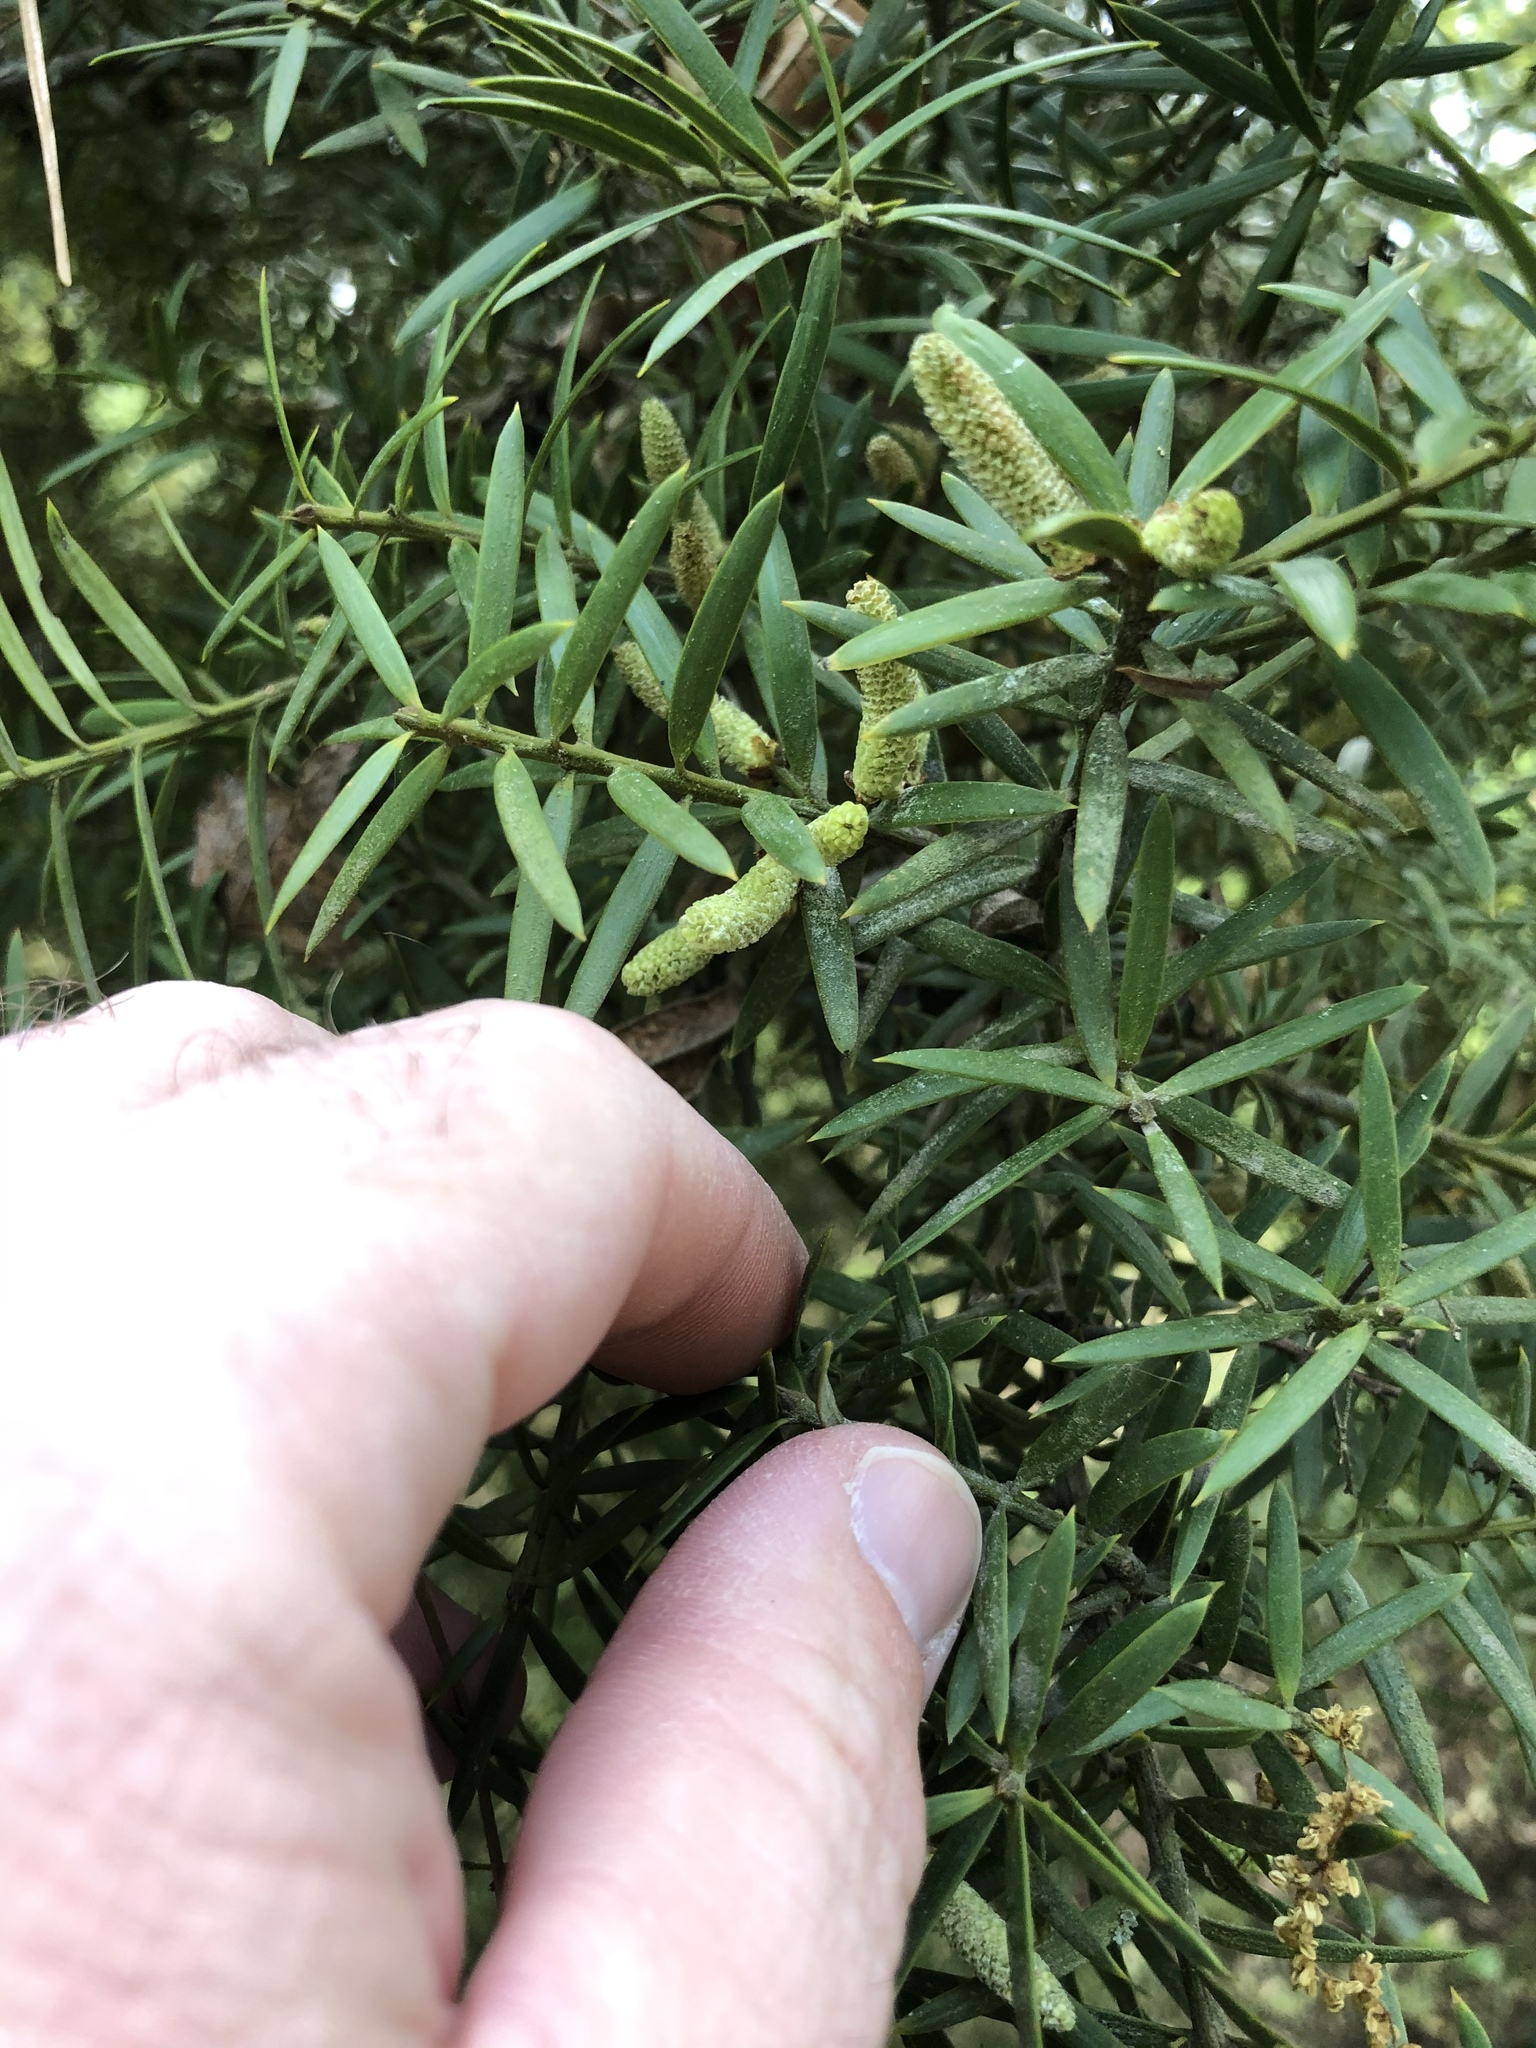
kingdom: Plantae
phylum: Tracheophyta
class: Pinopsida
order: Pinales
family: Podocarpaceae
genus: Podocarpus
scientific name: Podocarpus totara
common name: Totara
